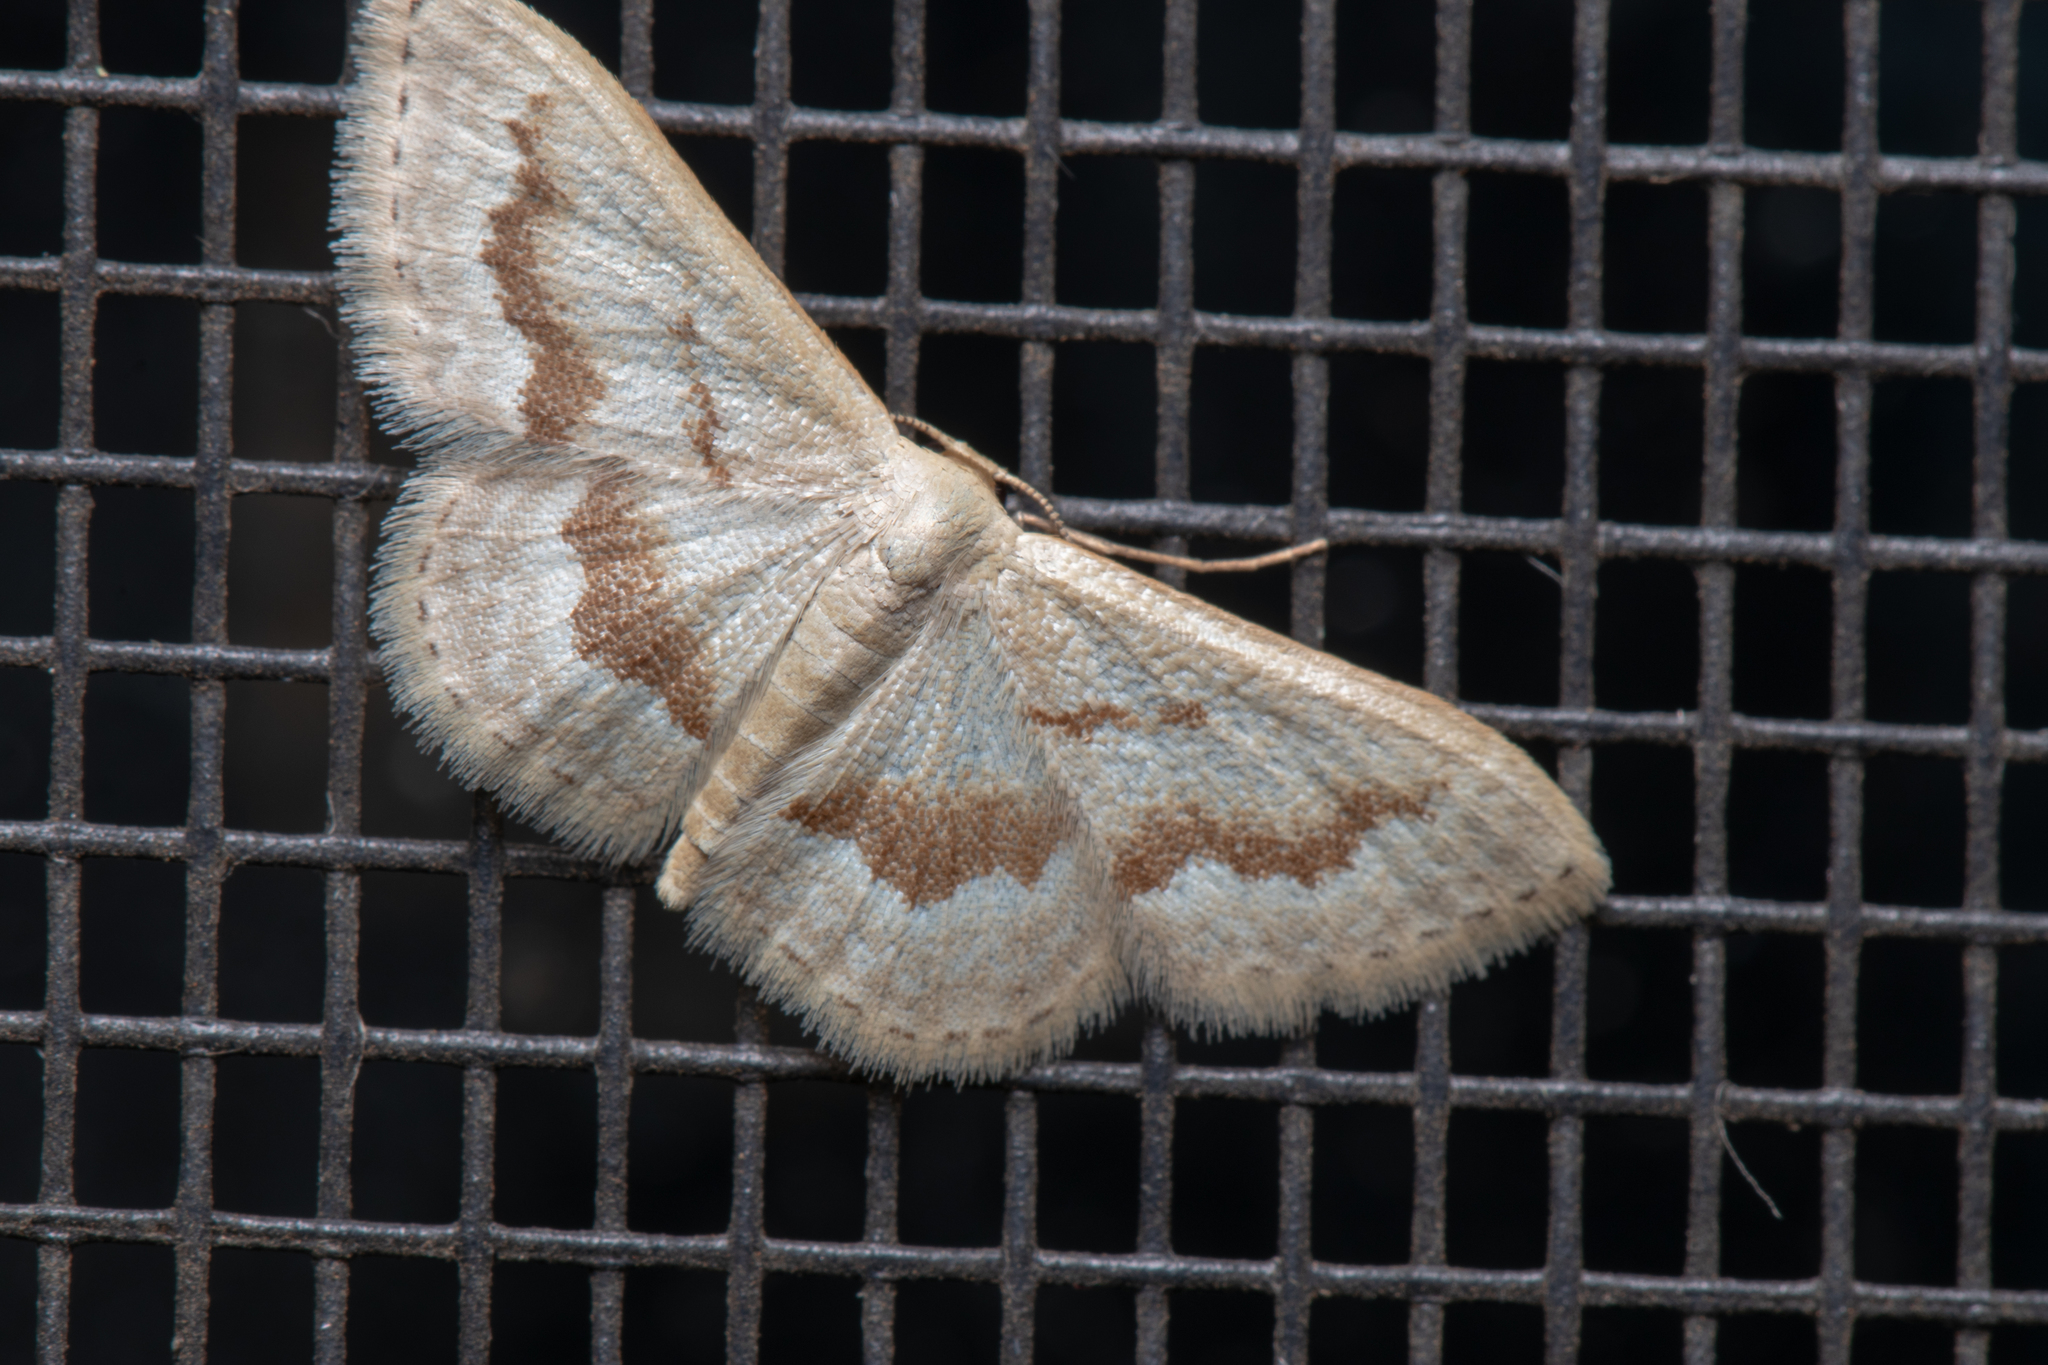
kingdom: Animalia
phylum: Arthropoda
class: Insecta
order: Lepidoptera
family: Geometridae
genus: Idaea
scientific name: Idaea iodesma
